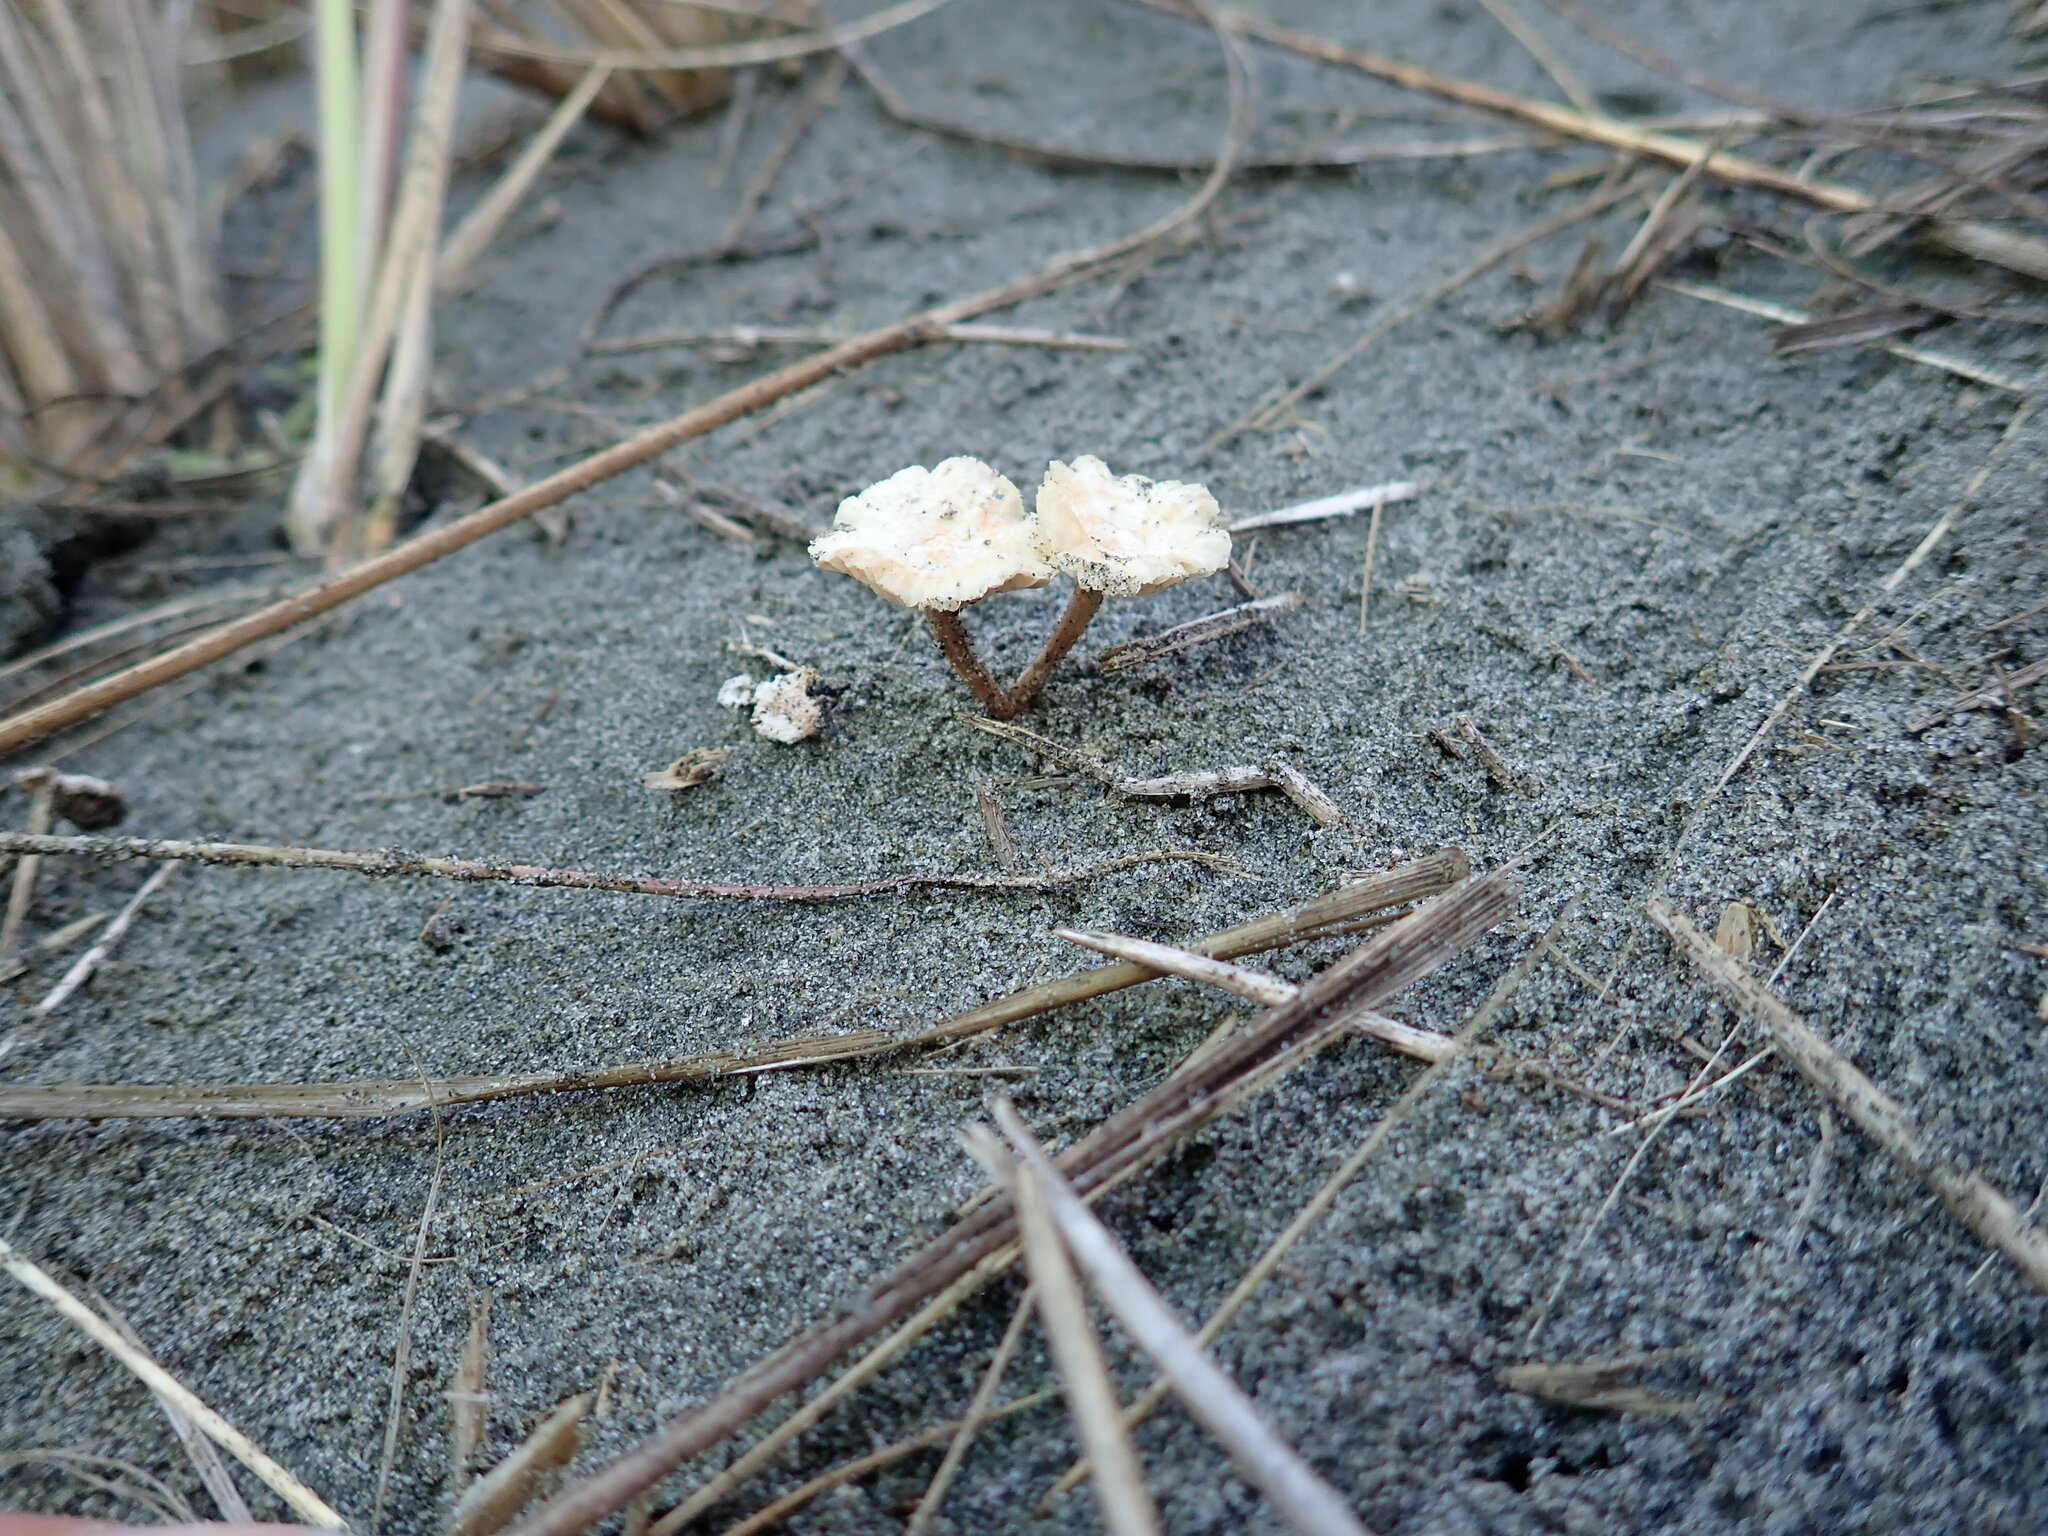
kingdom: Fungi
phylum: Basidiomycota
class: Agaricomycetes
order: Agaricales
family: Marasmiaceae
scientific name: Marasmiaceae
